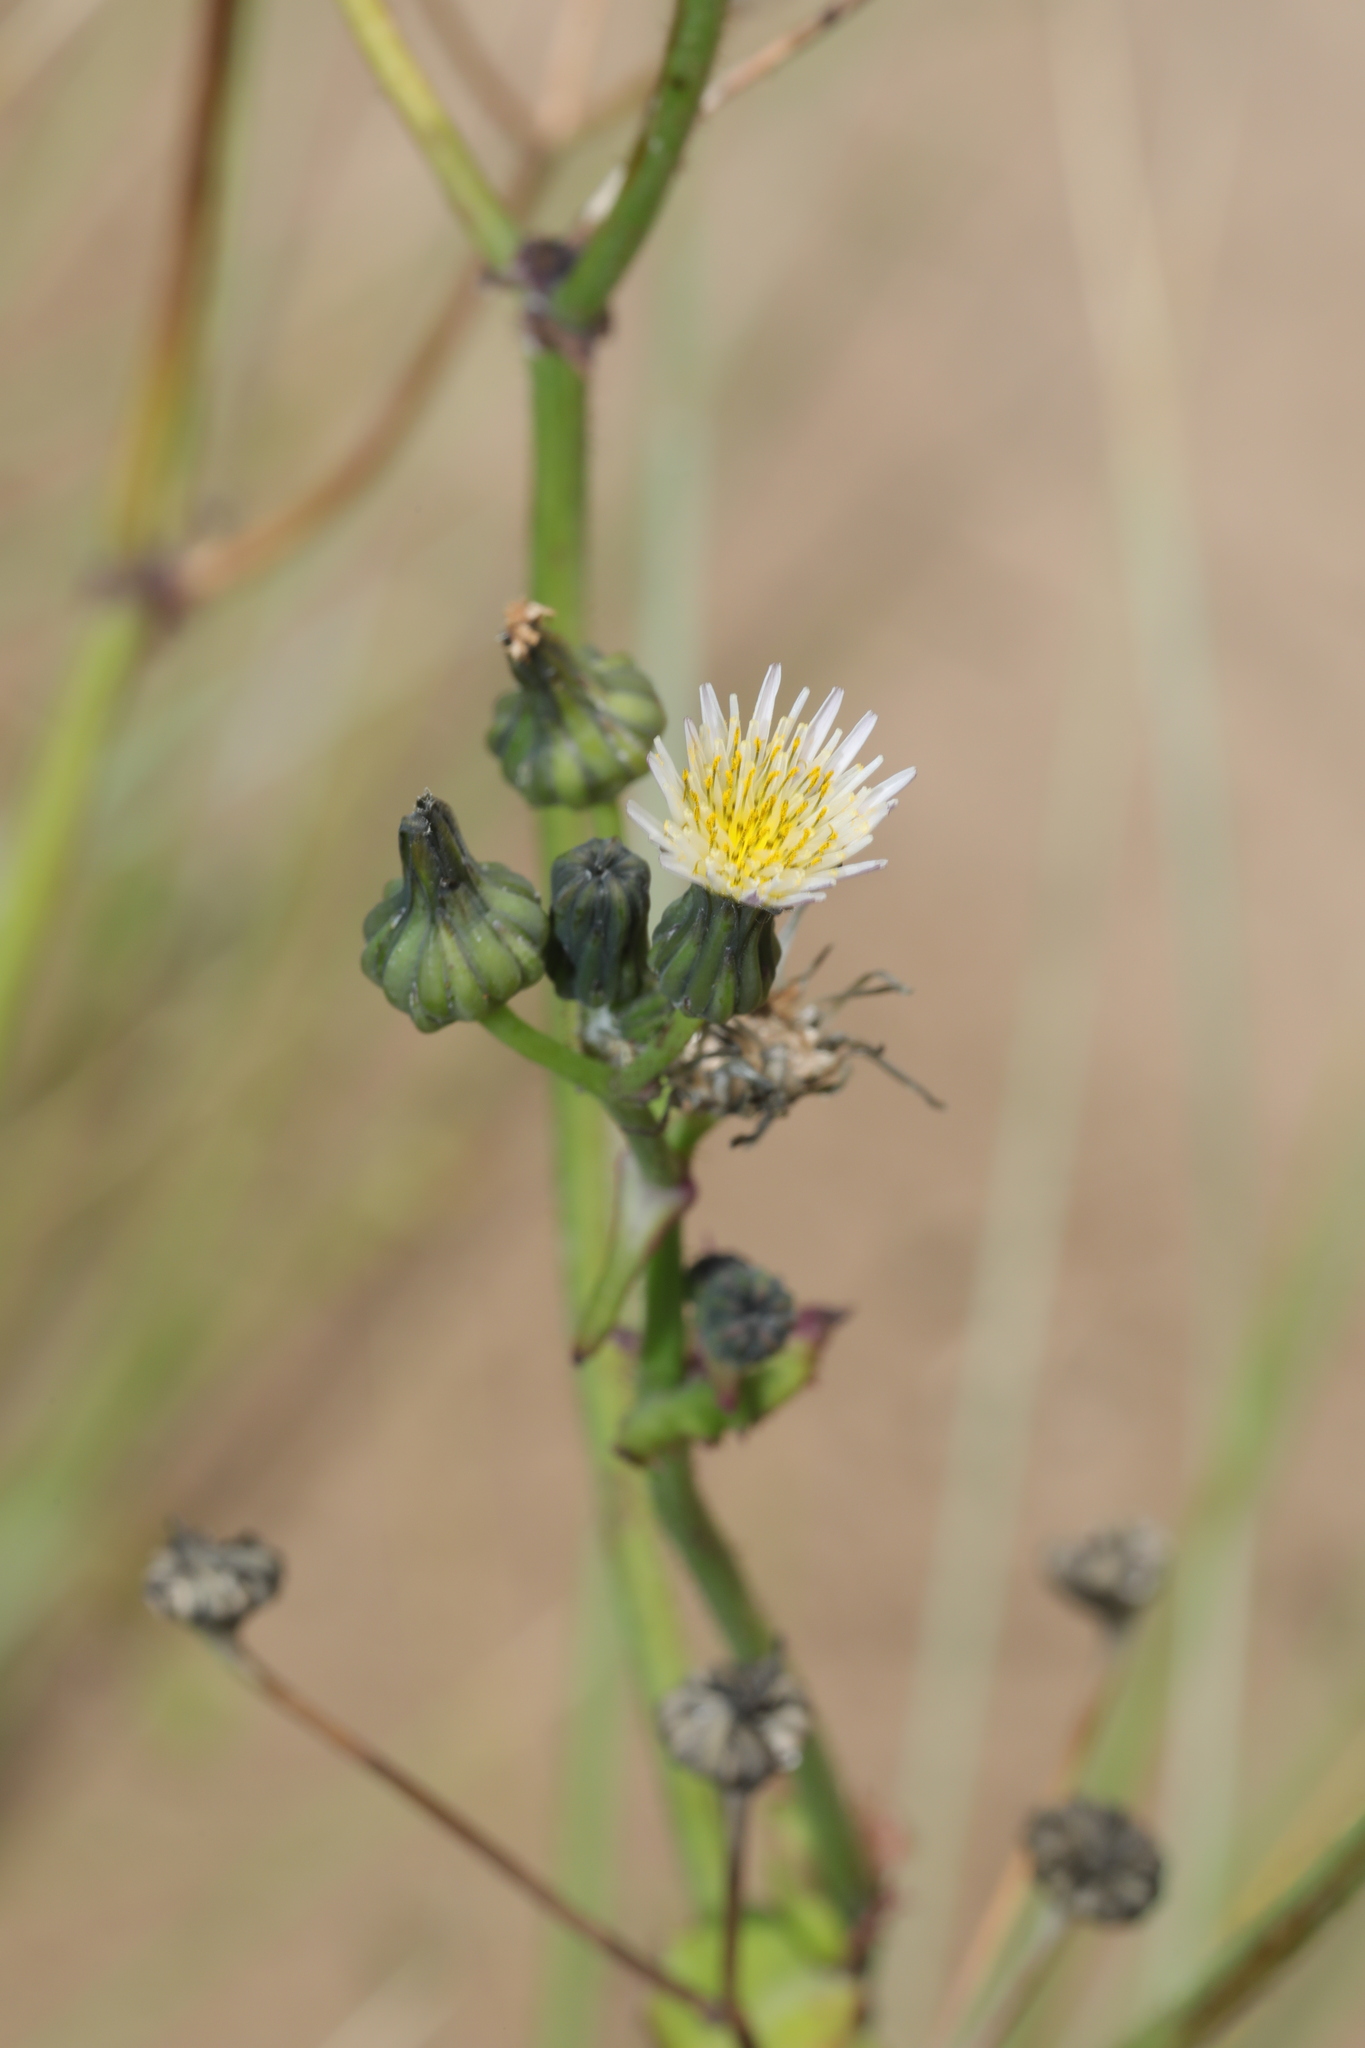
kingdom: Plantae
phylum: Tracheophyta
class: Magnoliopsida
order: Asterales
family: Asteraceae
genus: Sonchus
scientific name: Sonchus oleraceus
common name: Common sowthistle
